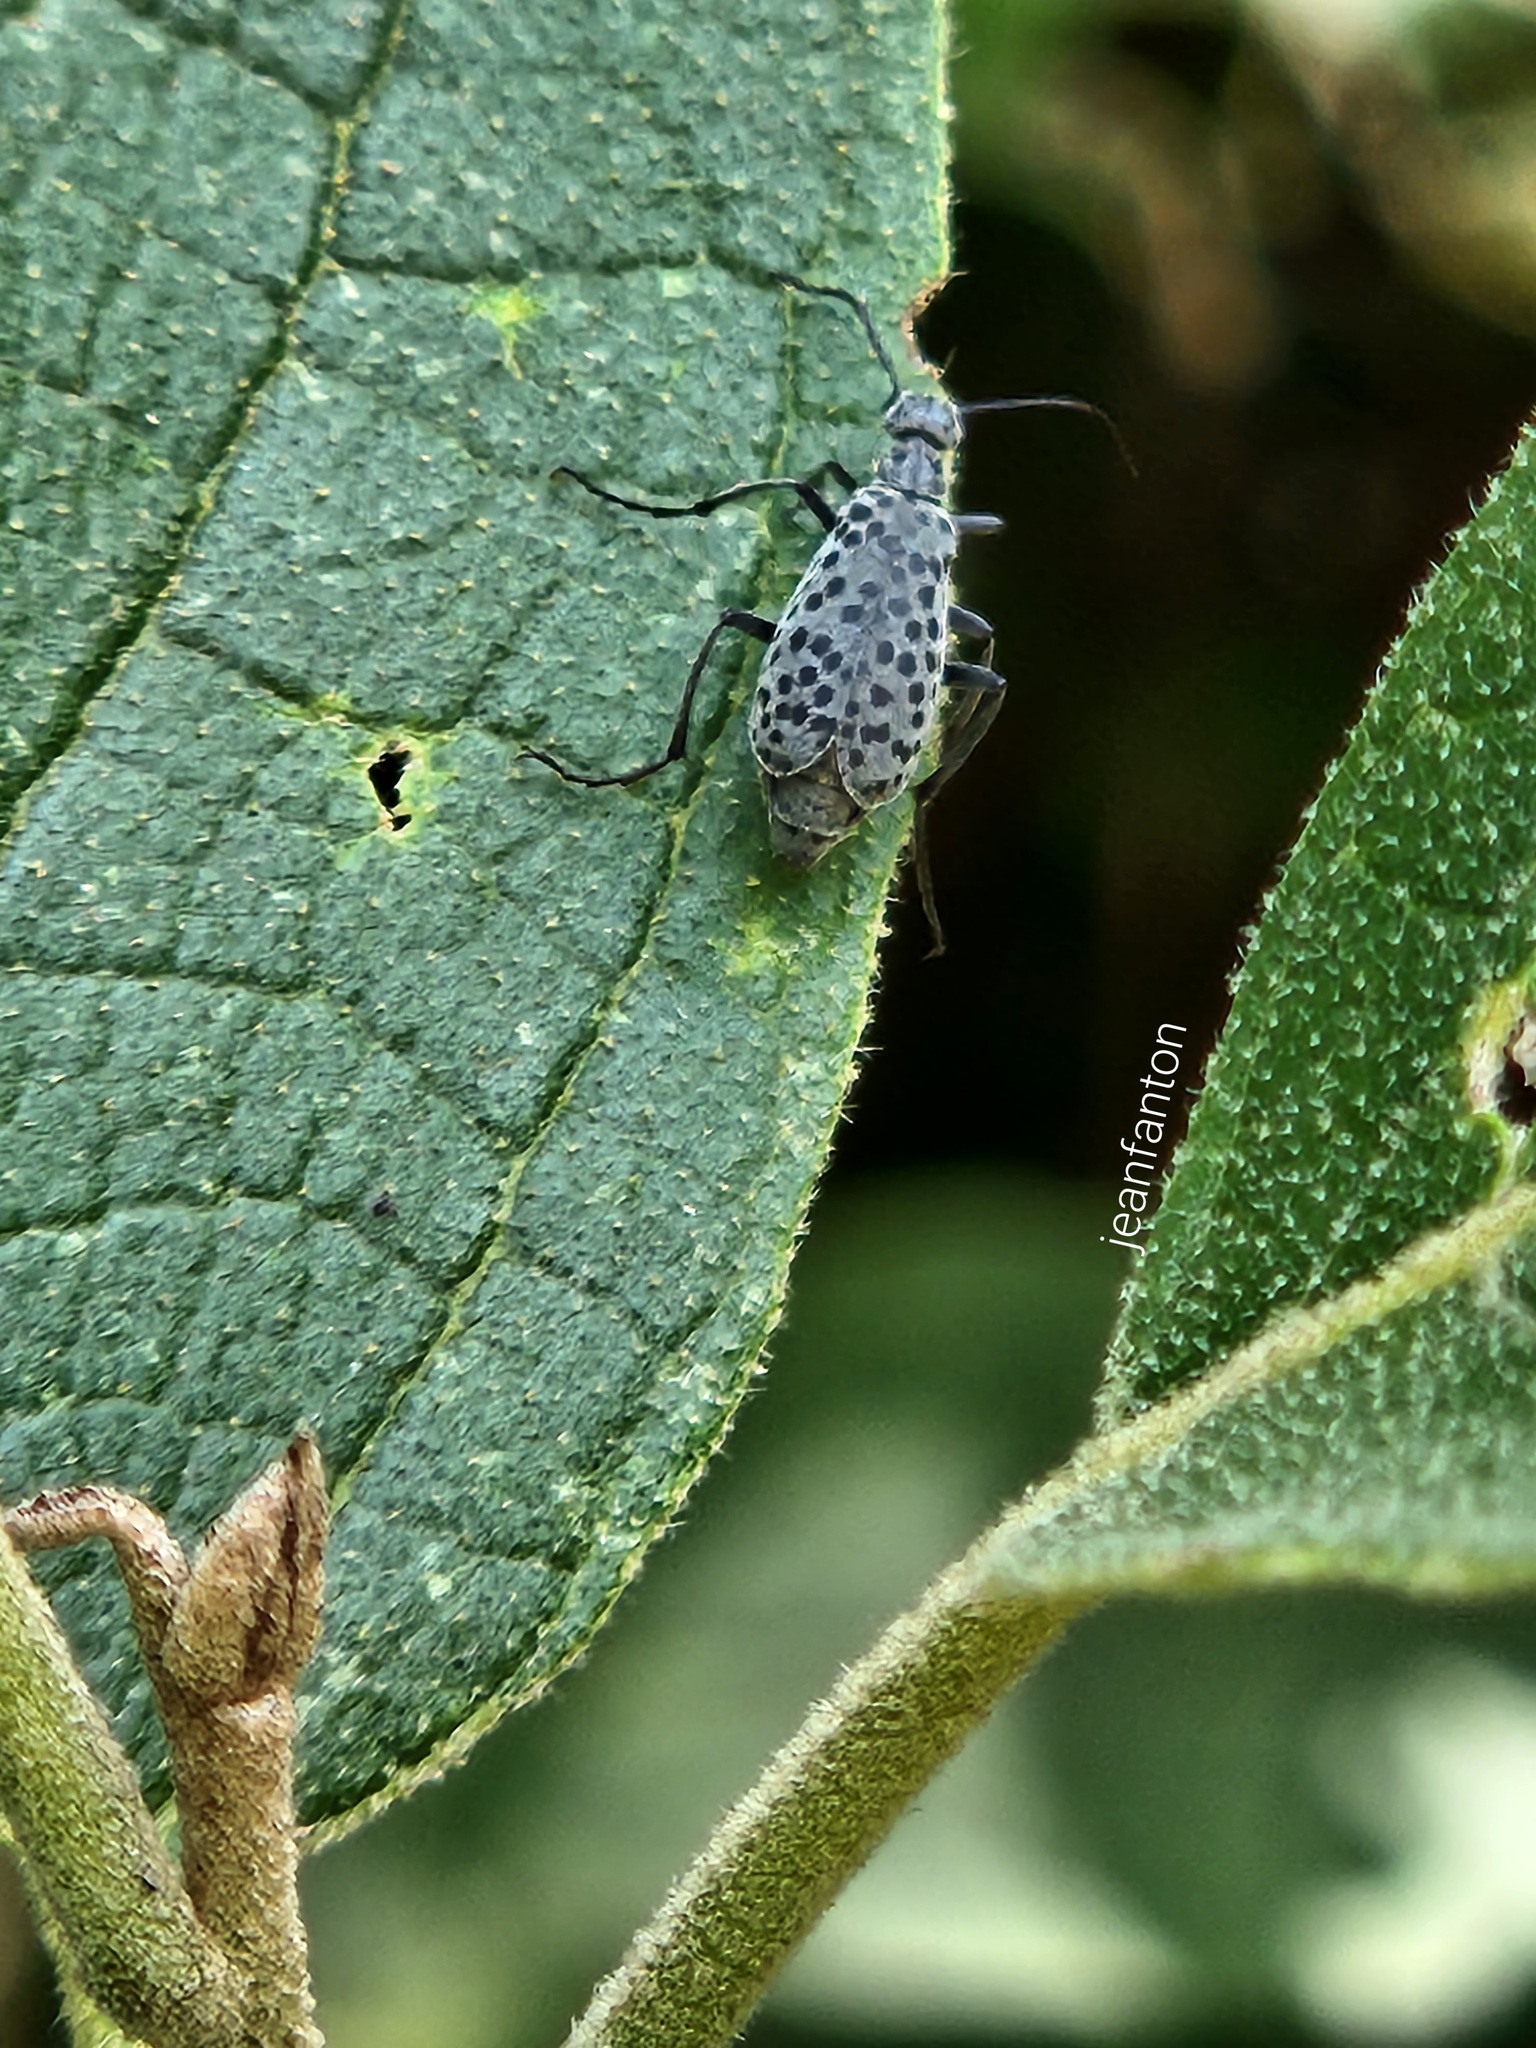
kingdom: Animalia
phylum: Arthropoda
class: Insecta
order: Coleoptera
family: Meloidae
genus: Epicauta
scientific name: Epicauta
